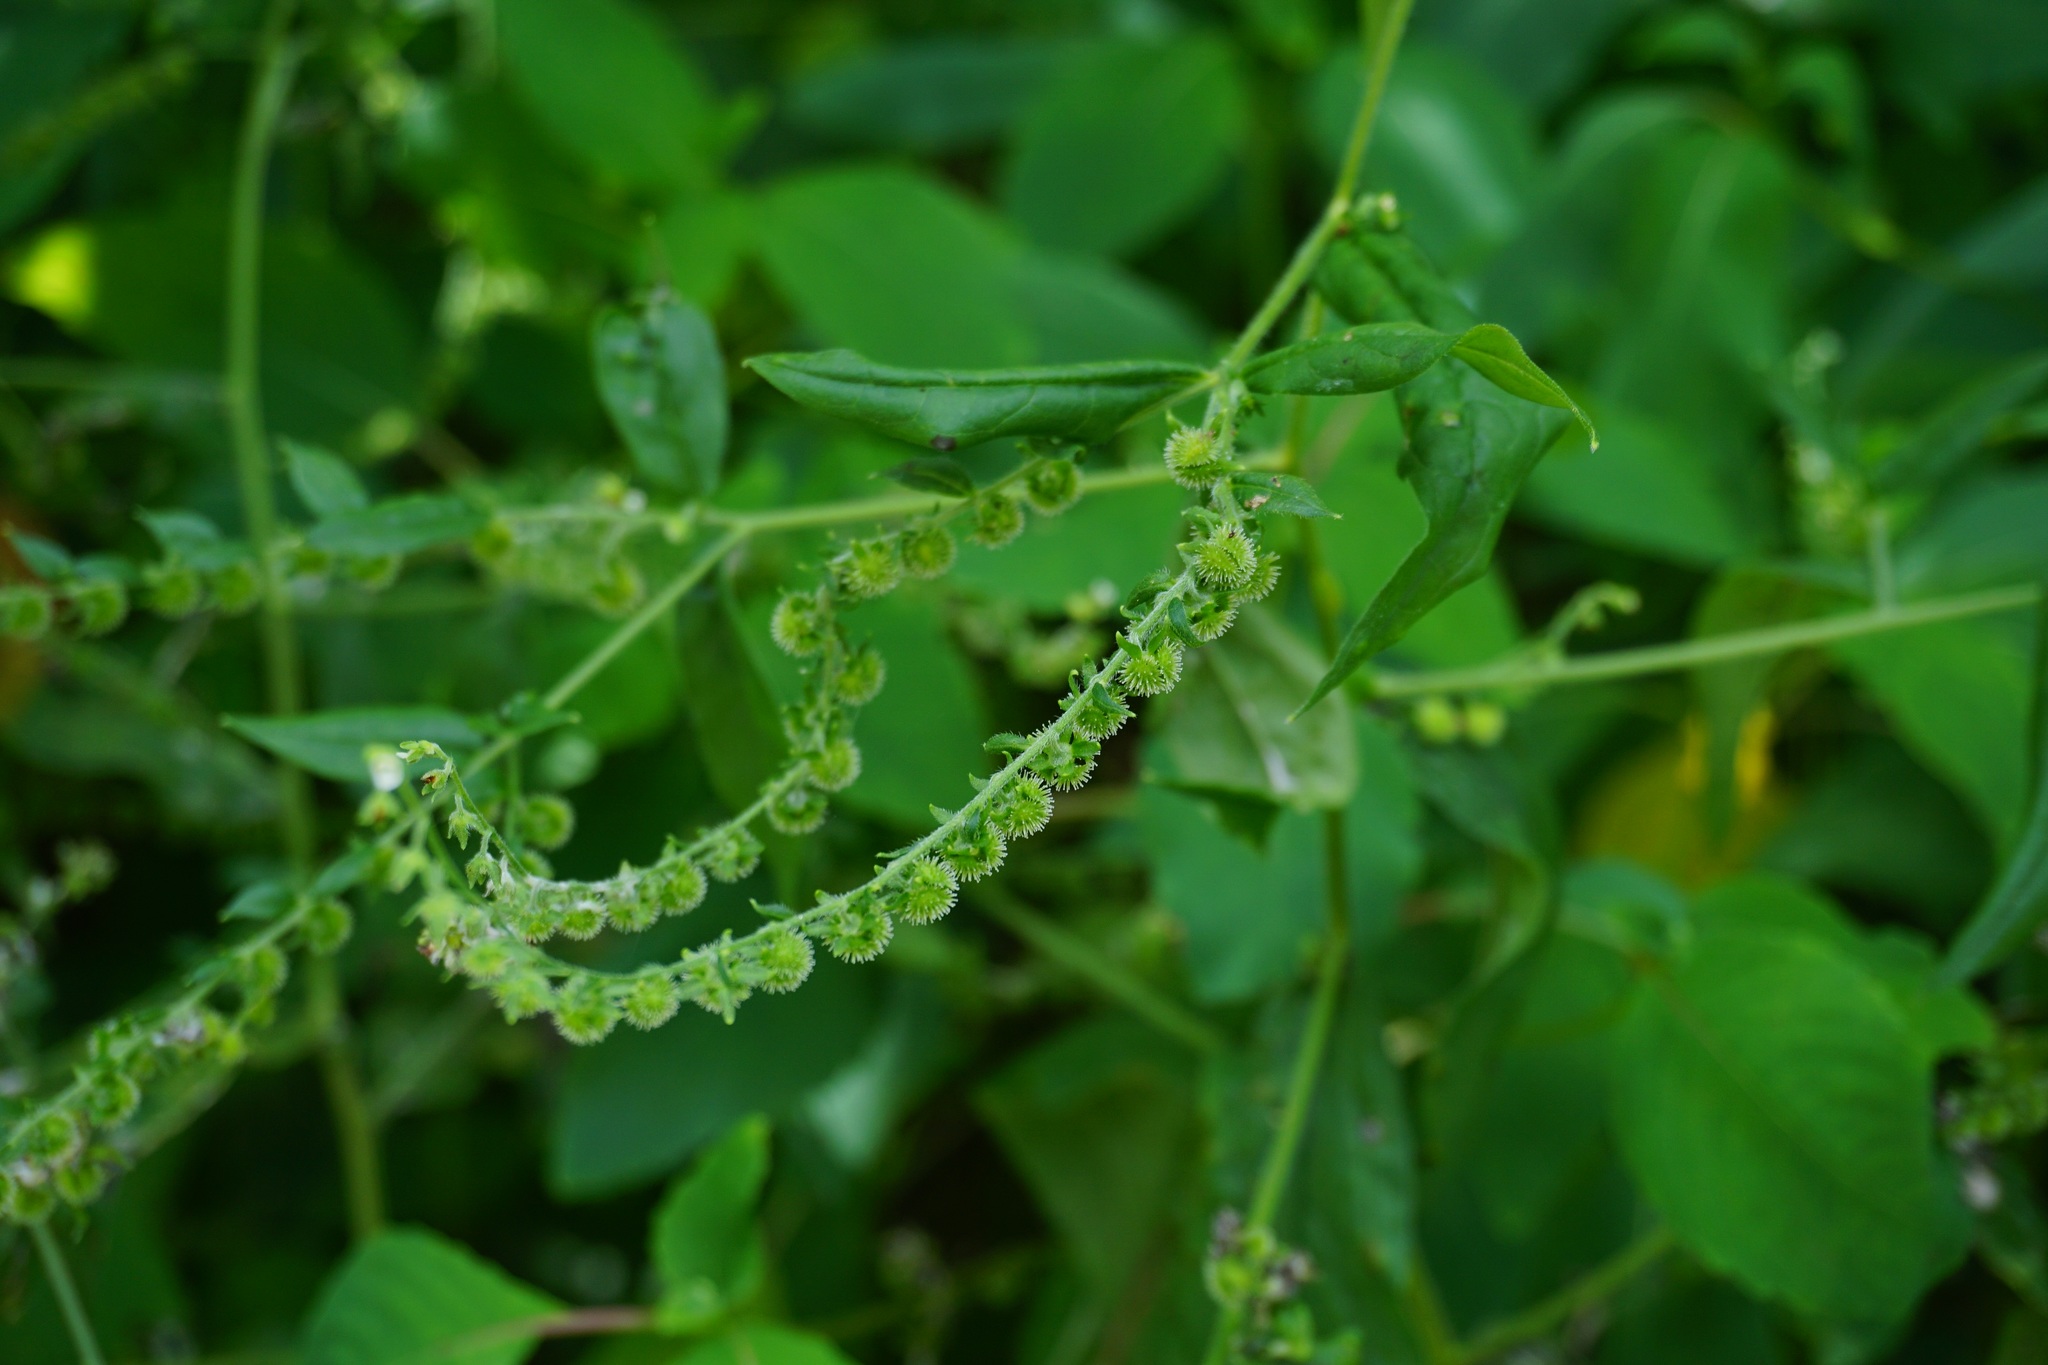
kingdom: Plantae
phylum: Tracheophyta
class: Magnoliopsida
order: Boraginales
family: Boraginaceae
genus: Hackelia
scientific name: Hackelia virginiana
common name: Beggar's-lice
